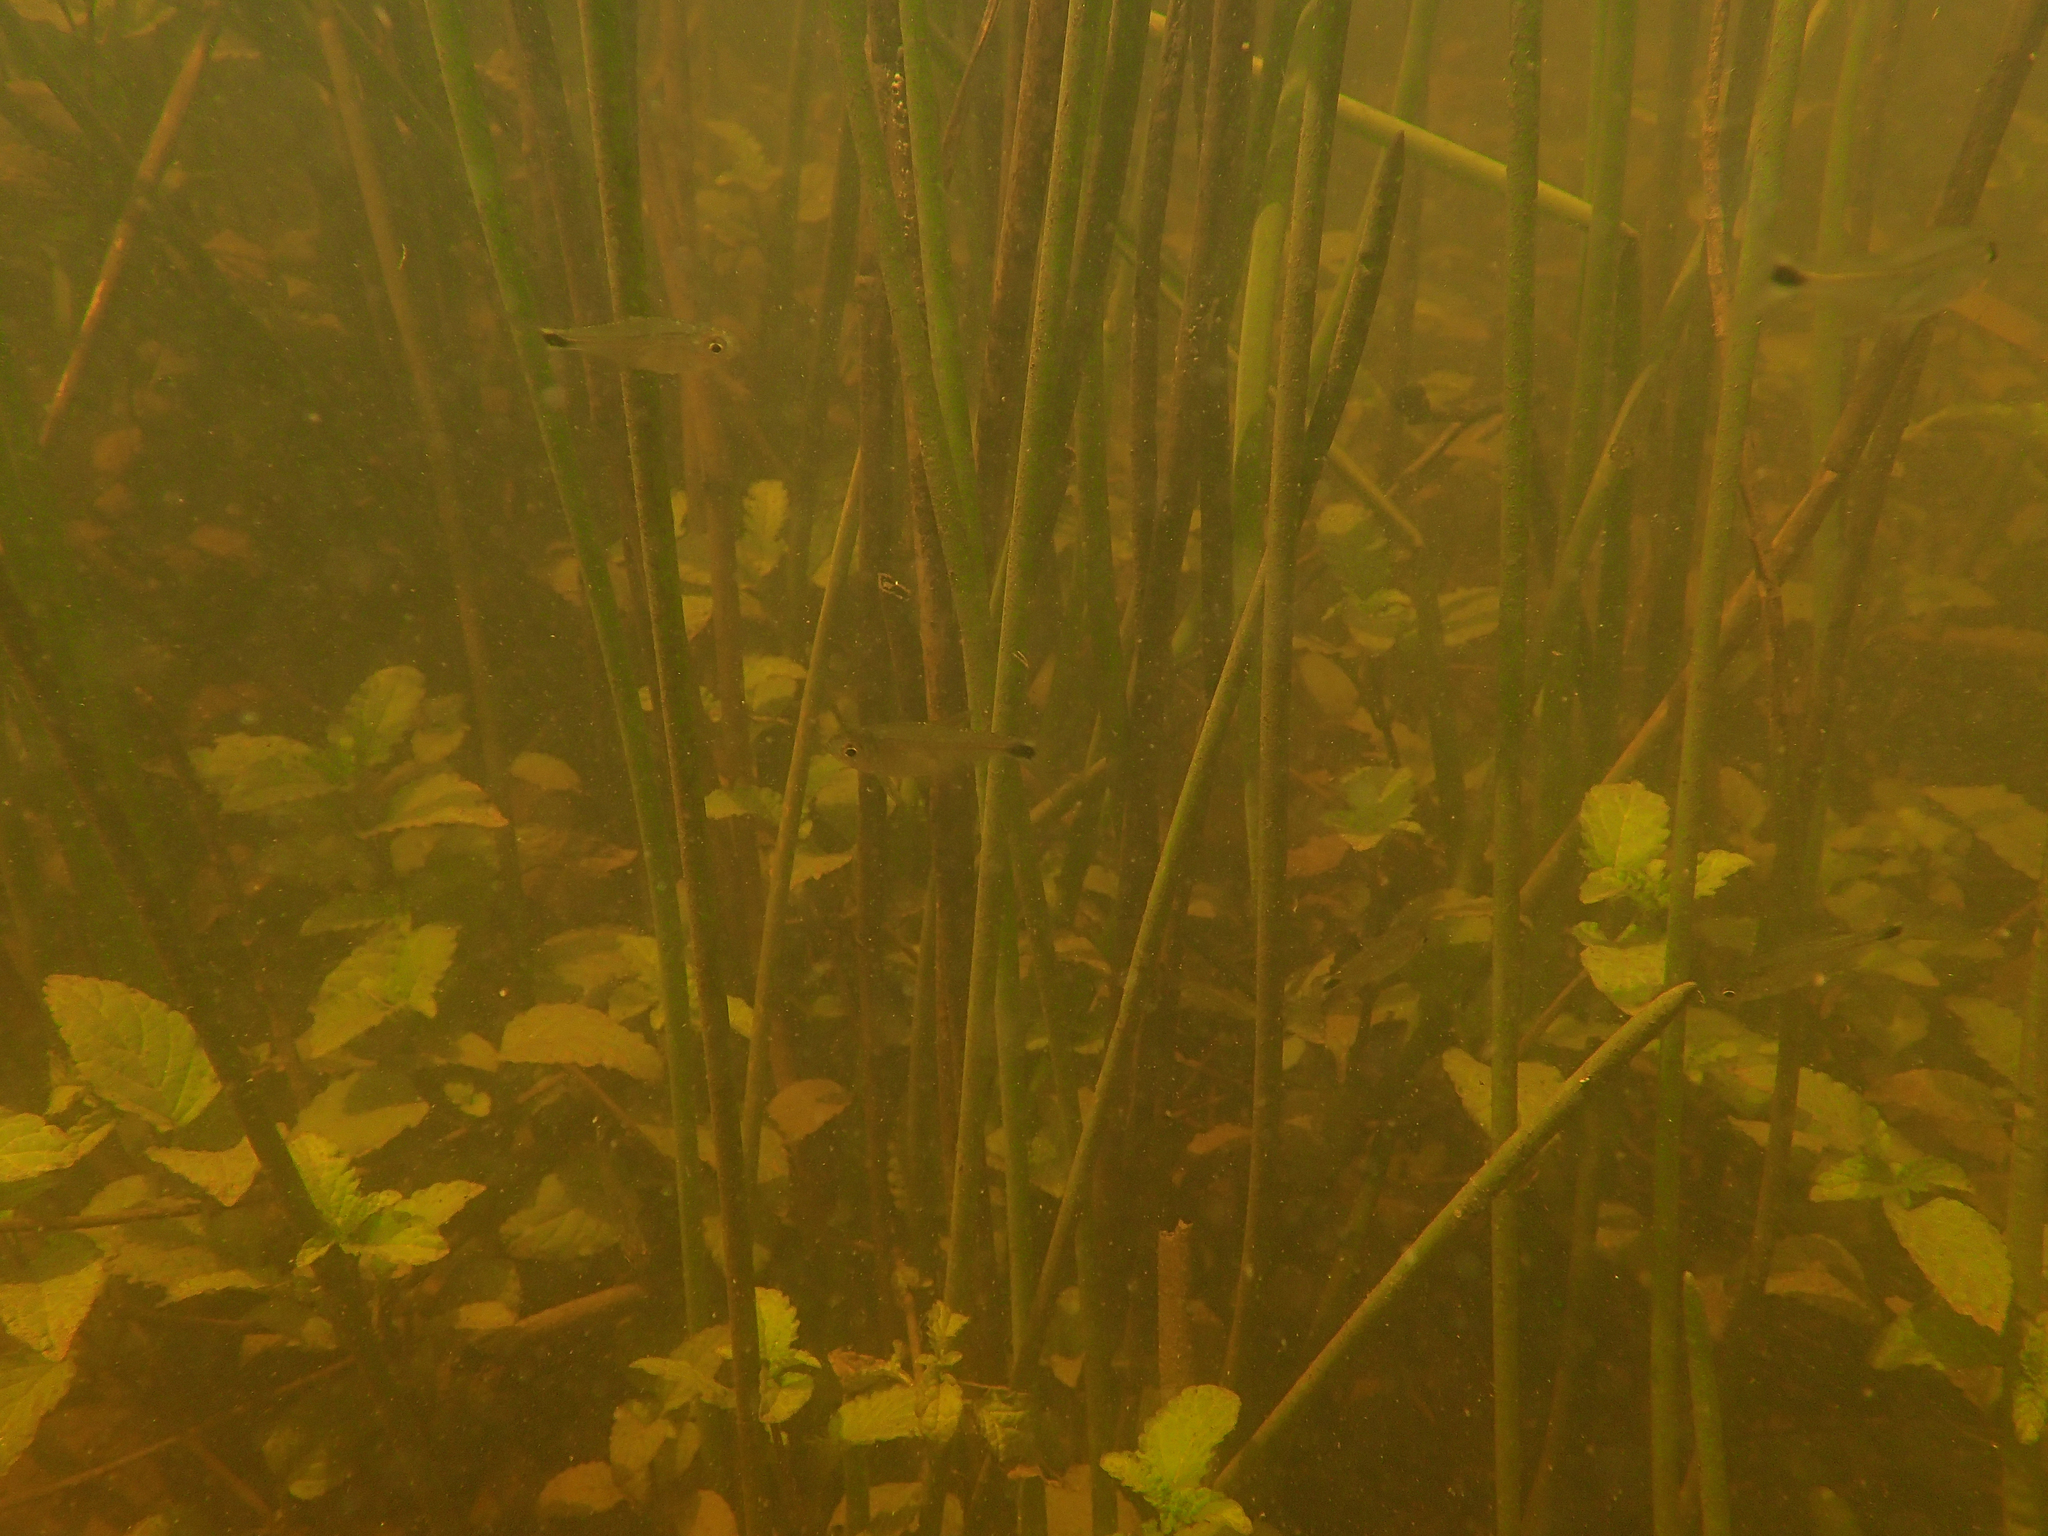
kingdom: Animalia
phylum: Chordata
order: Characiformes
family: Characidae
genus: Hemigrammus
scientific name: Hemigrammus rodwayi
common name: Bass tetra
